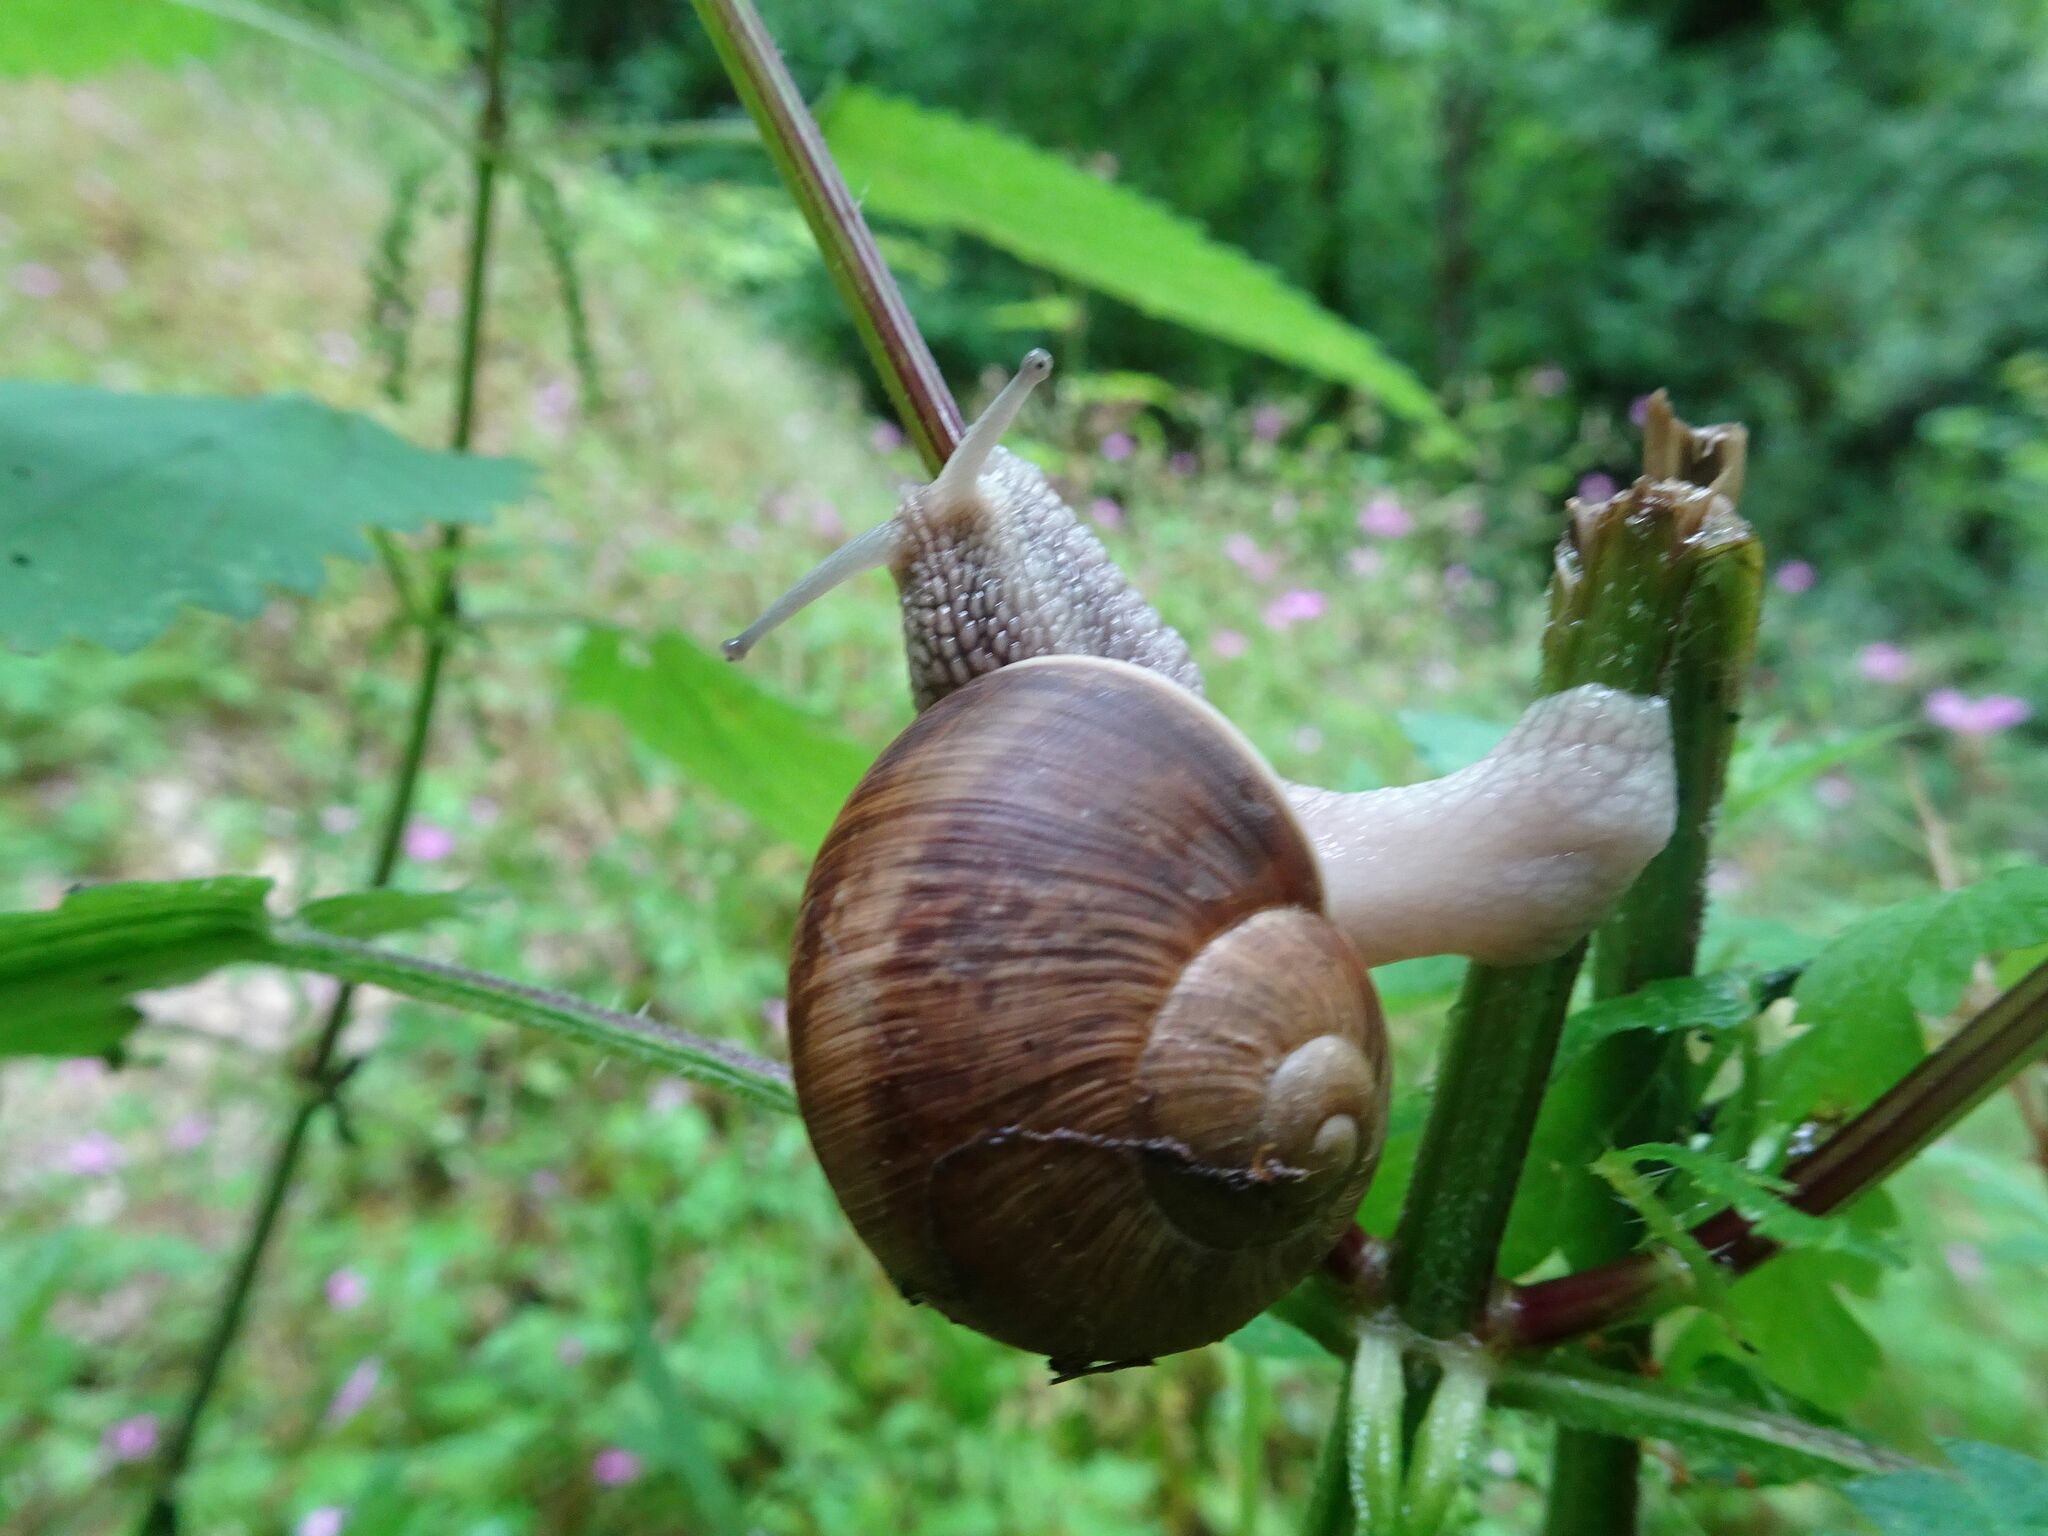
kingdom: Animalia
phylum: Mollusca
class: Gastropoda
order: Stylommatophora
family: Helicidae
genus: Helix
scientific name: Helix pomatia
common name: Roman snail
